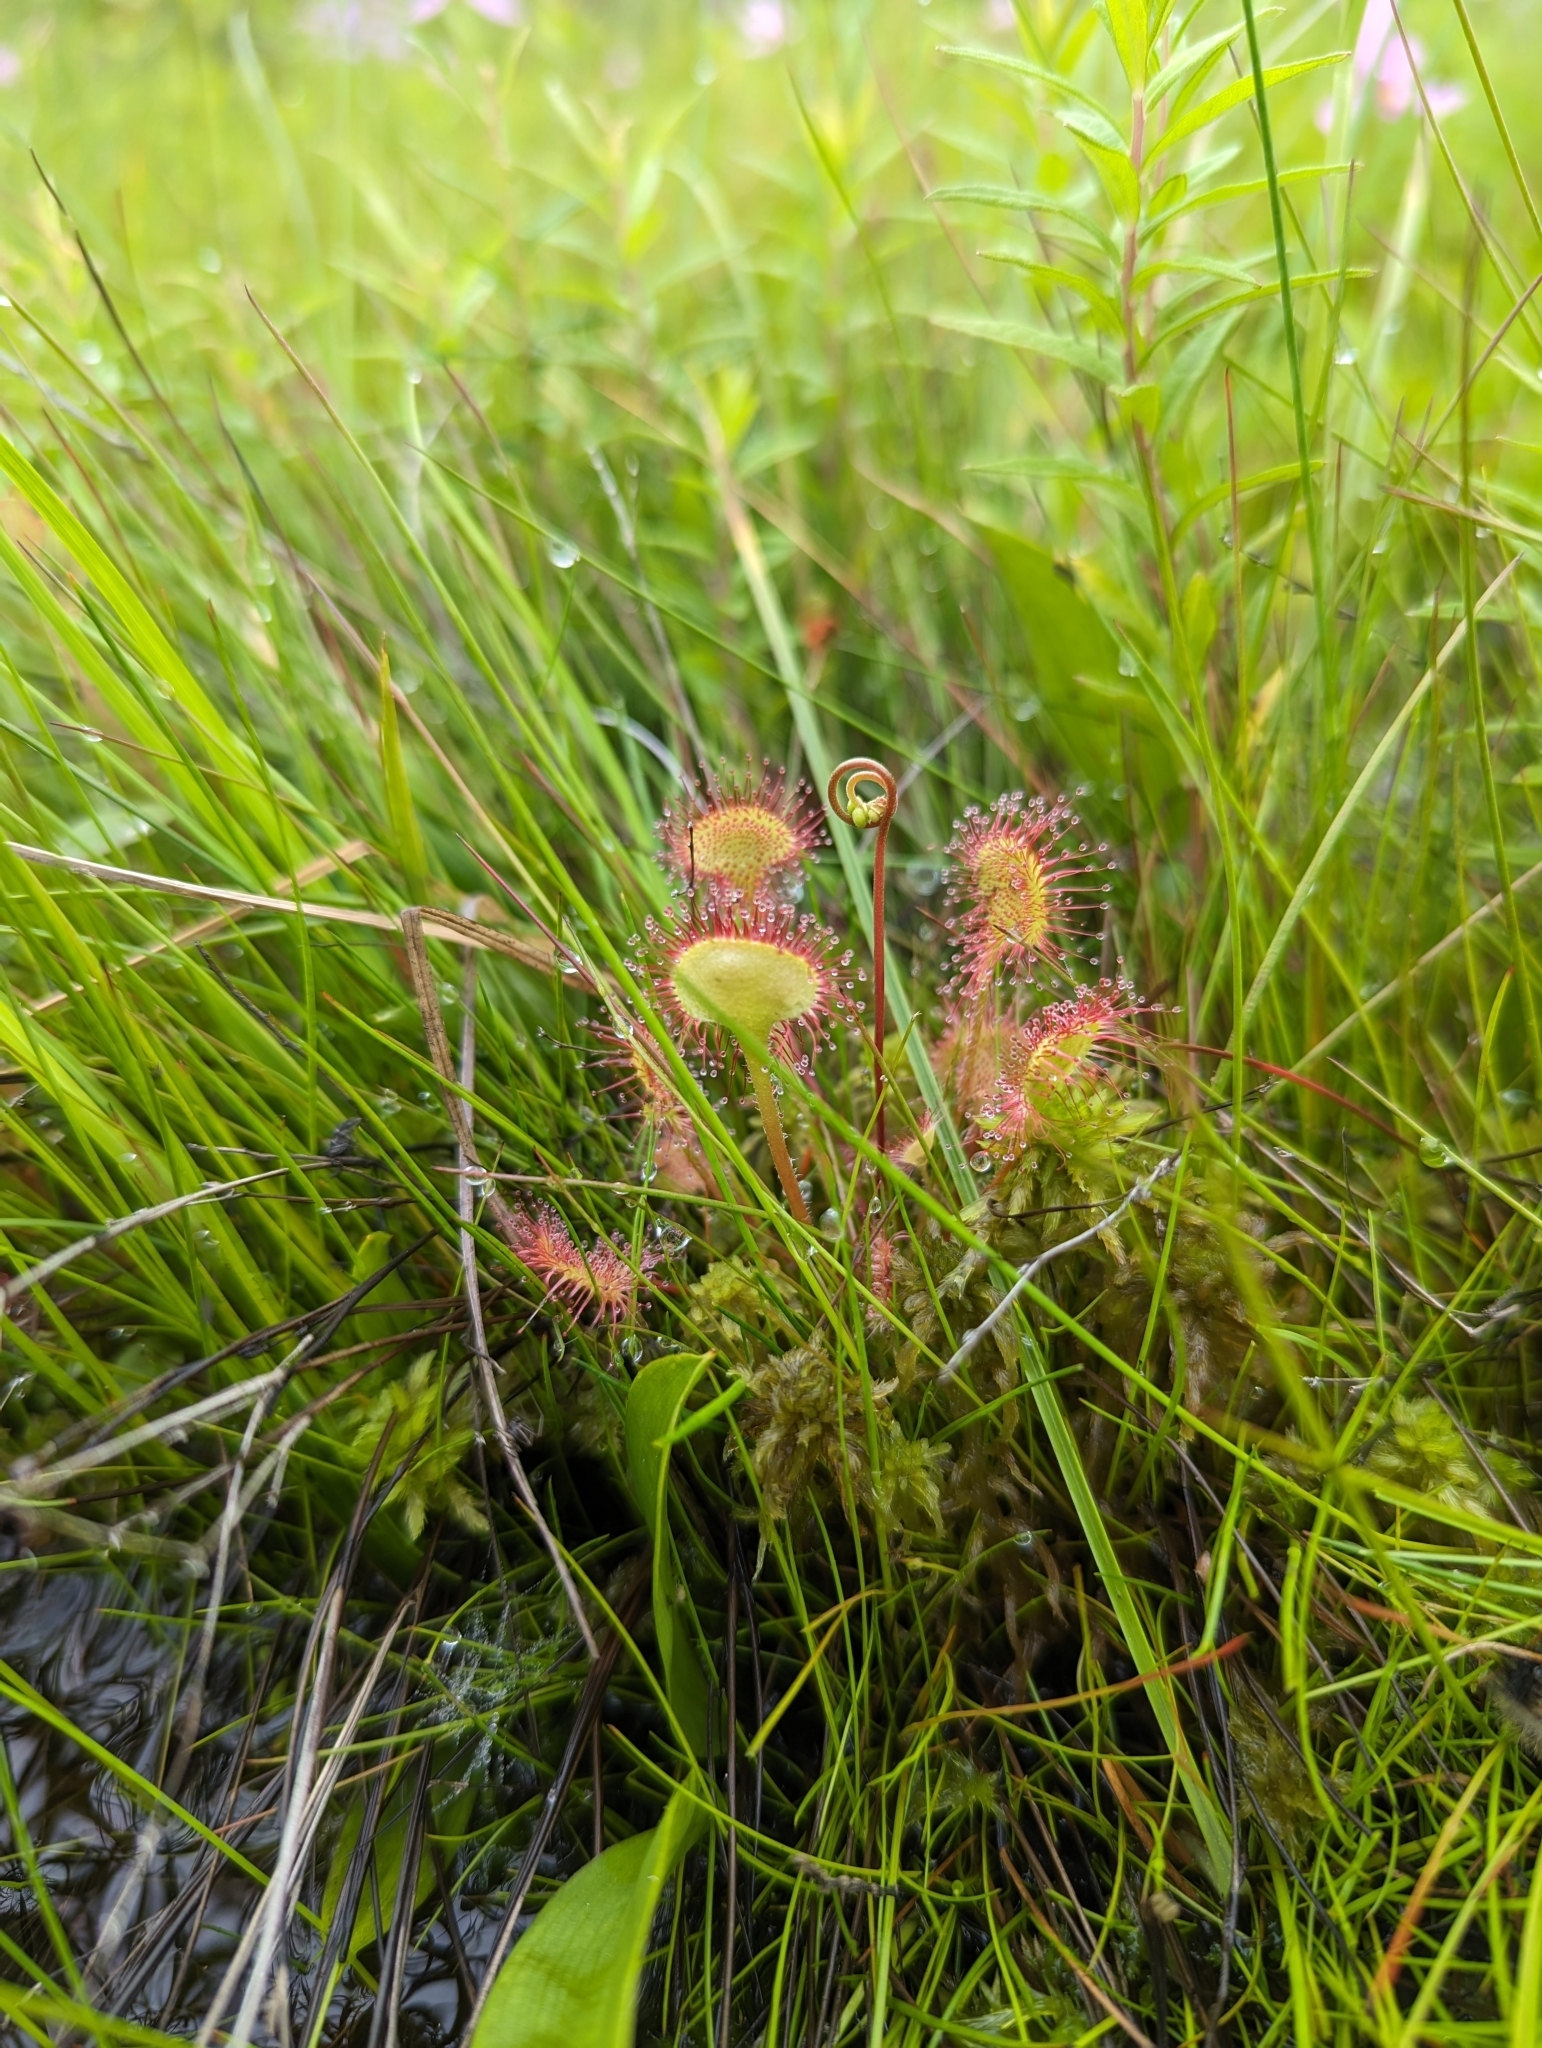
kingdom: Plantae
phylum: Tracheophyta
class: Magnoliopsida
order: Caryophyllales
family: Droseraceae
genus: Drosera
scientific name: Drosera rotundifolia
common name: Round-leaved sundew
